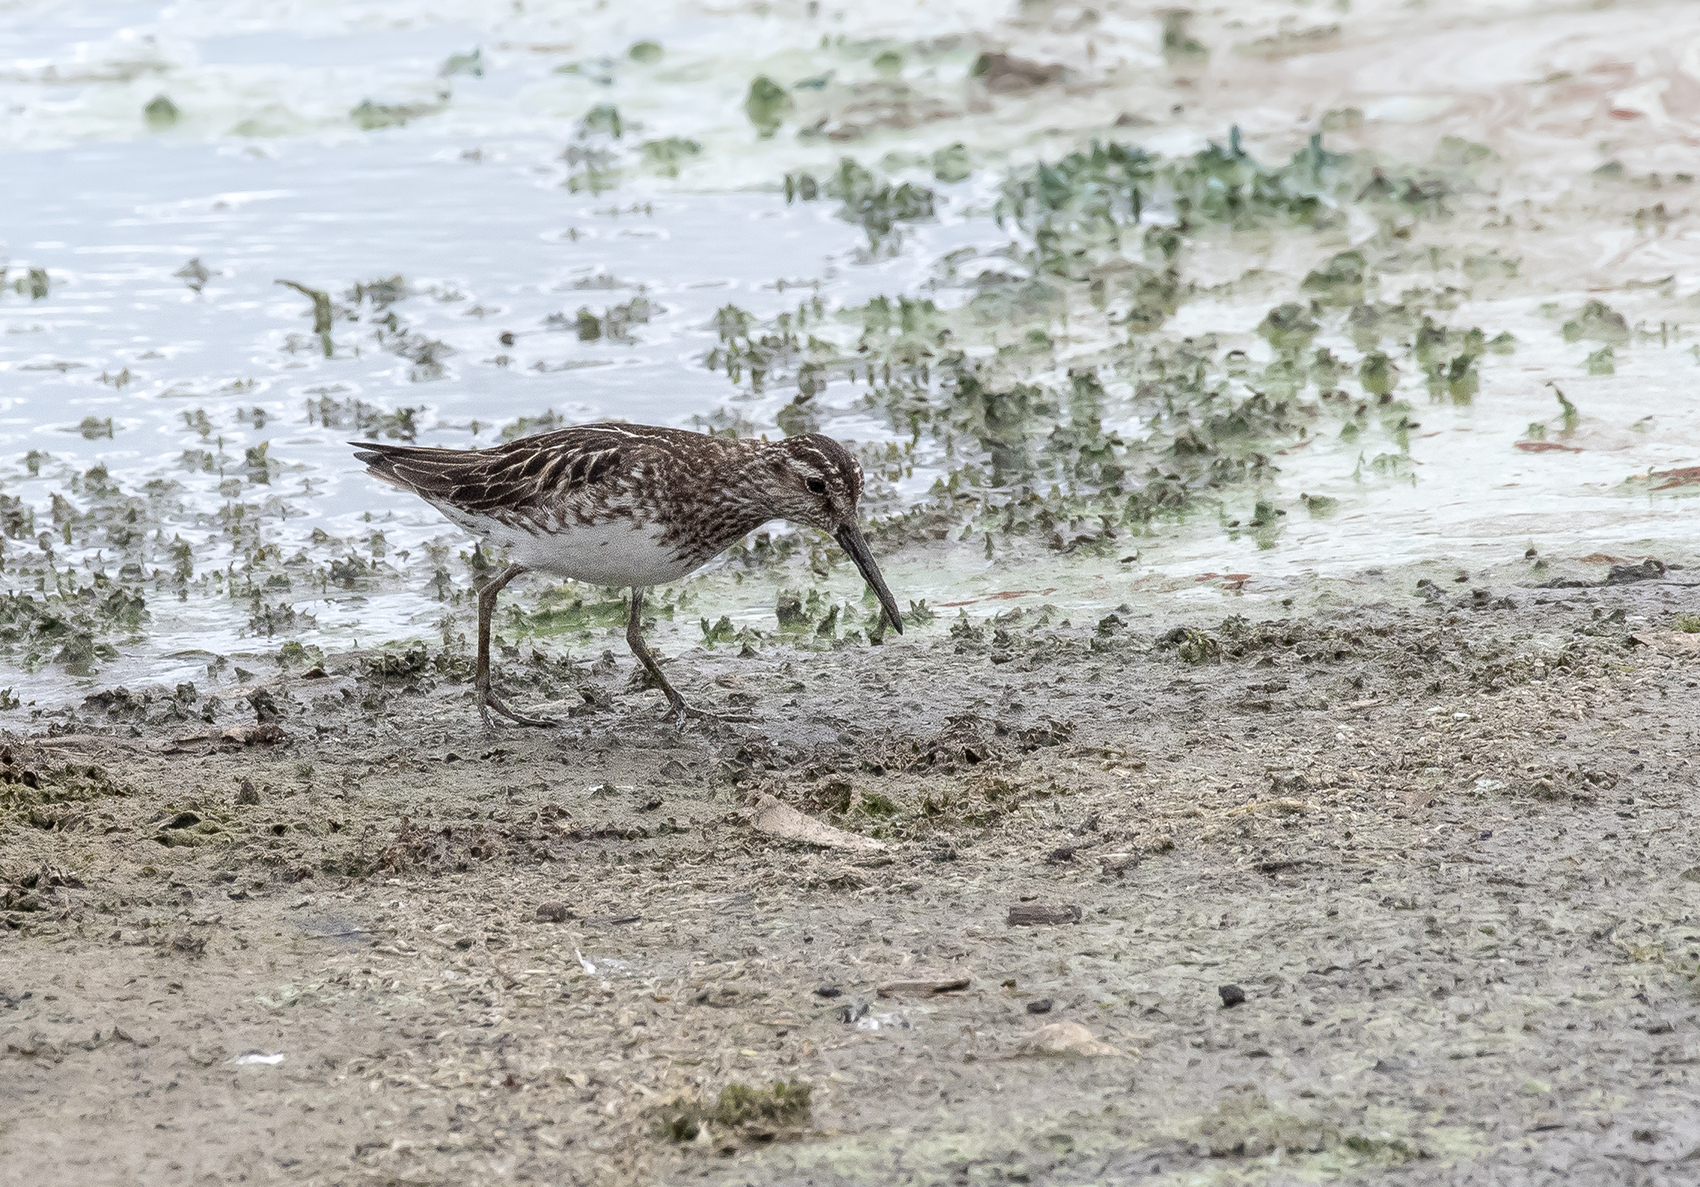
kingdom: Animalia
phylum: Chordata
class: Aves
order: Charadriiformes
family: Scolopacidae
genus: Calidris
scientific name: Calidris falcinellus
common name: Broad-billed sandpiper
